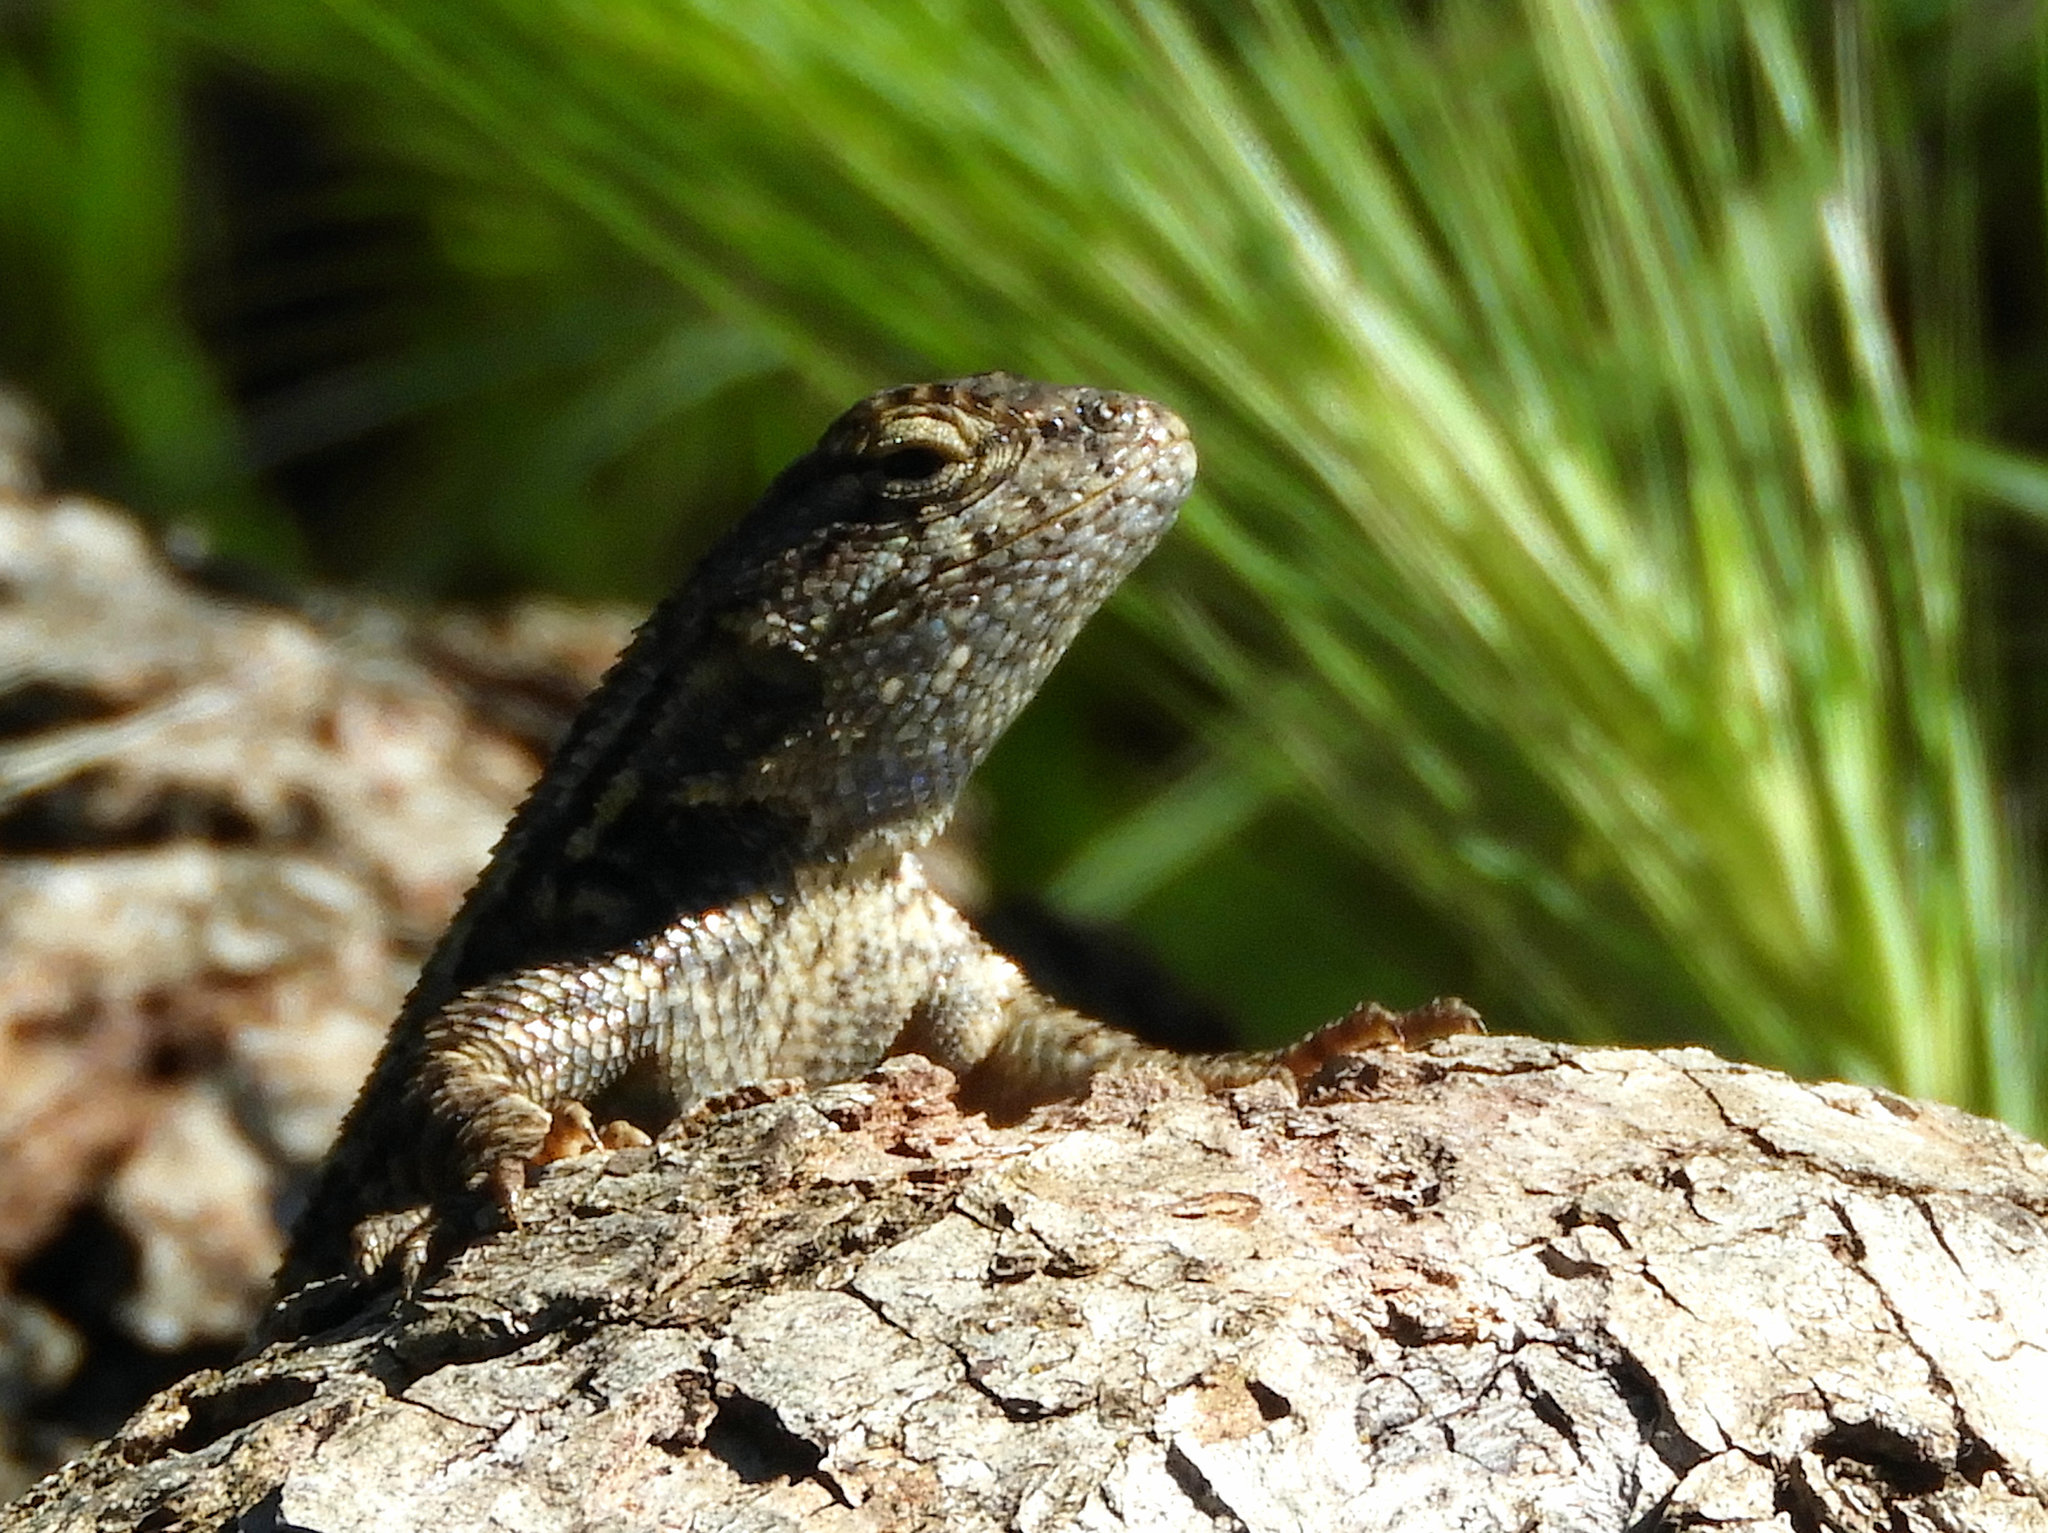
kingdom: Animalia
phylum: Chordata
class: Squamata
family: Phrynosomatidae
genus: Sceloporus
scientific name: Sceloporus occidentalis
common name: Western fence lizard
